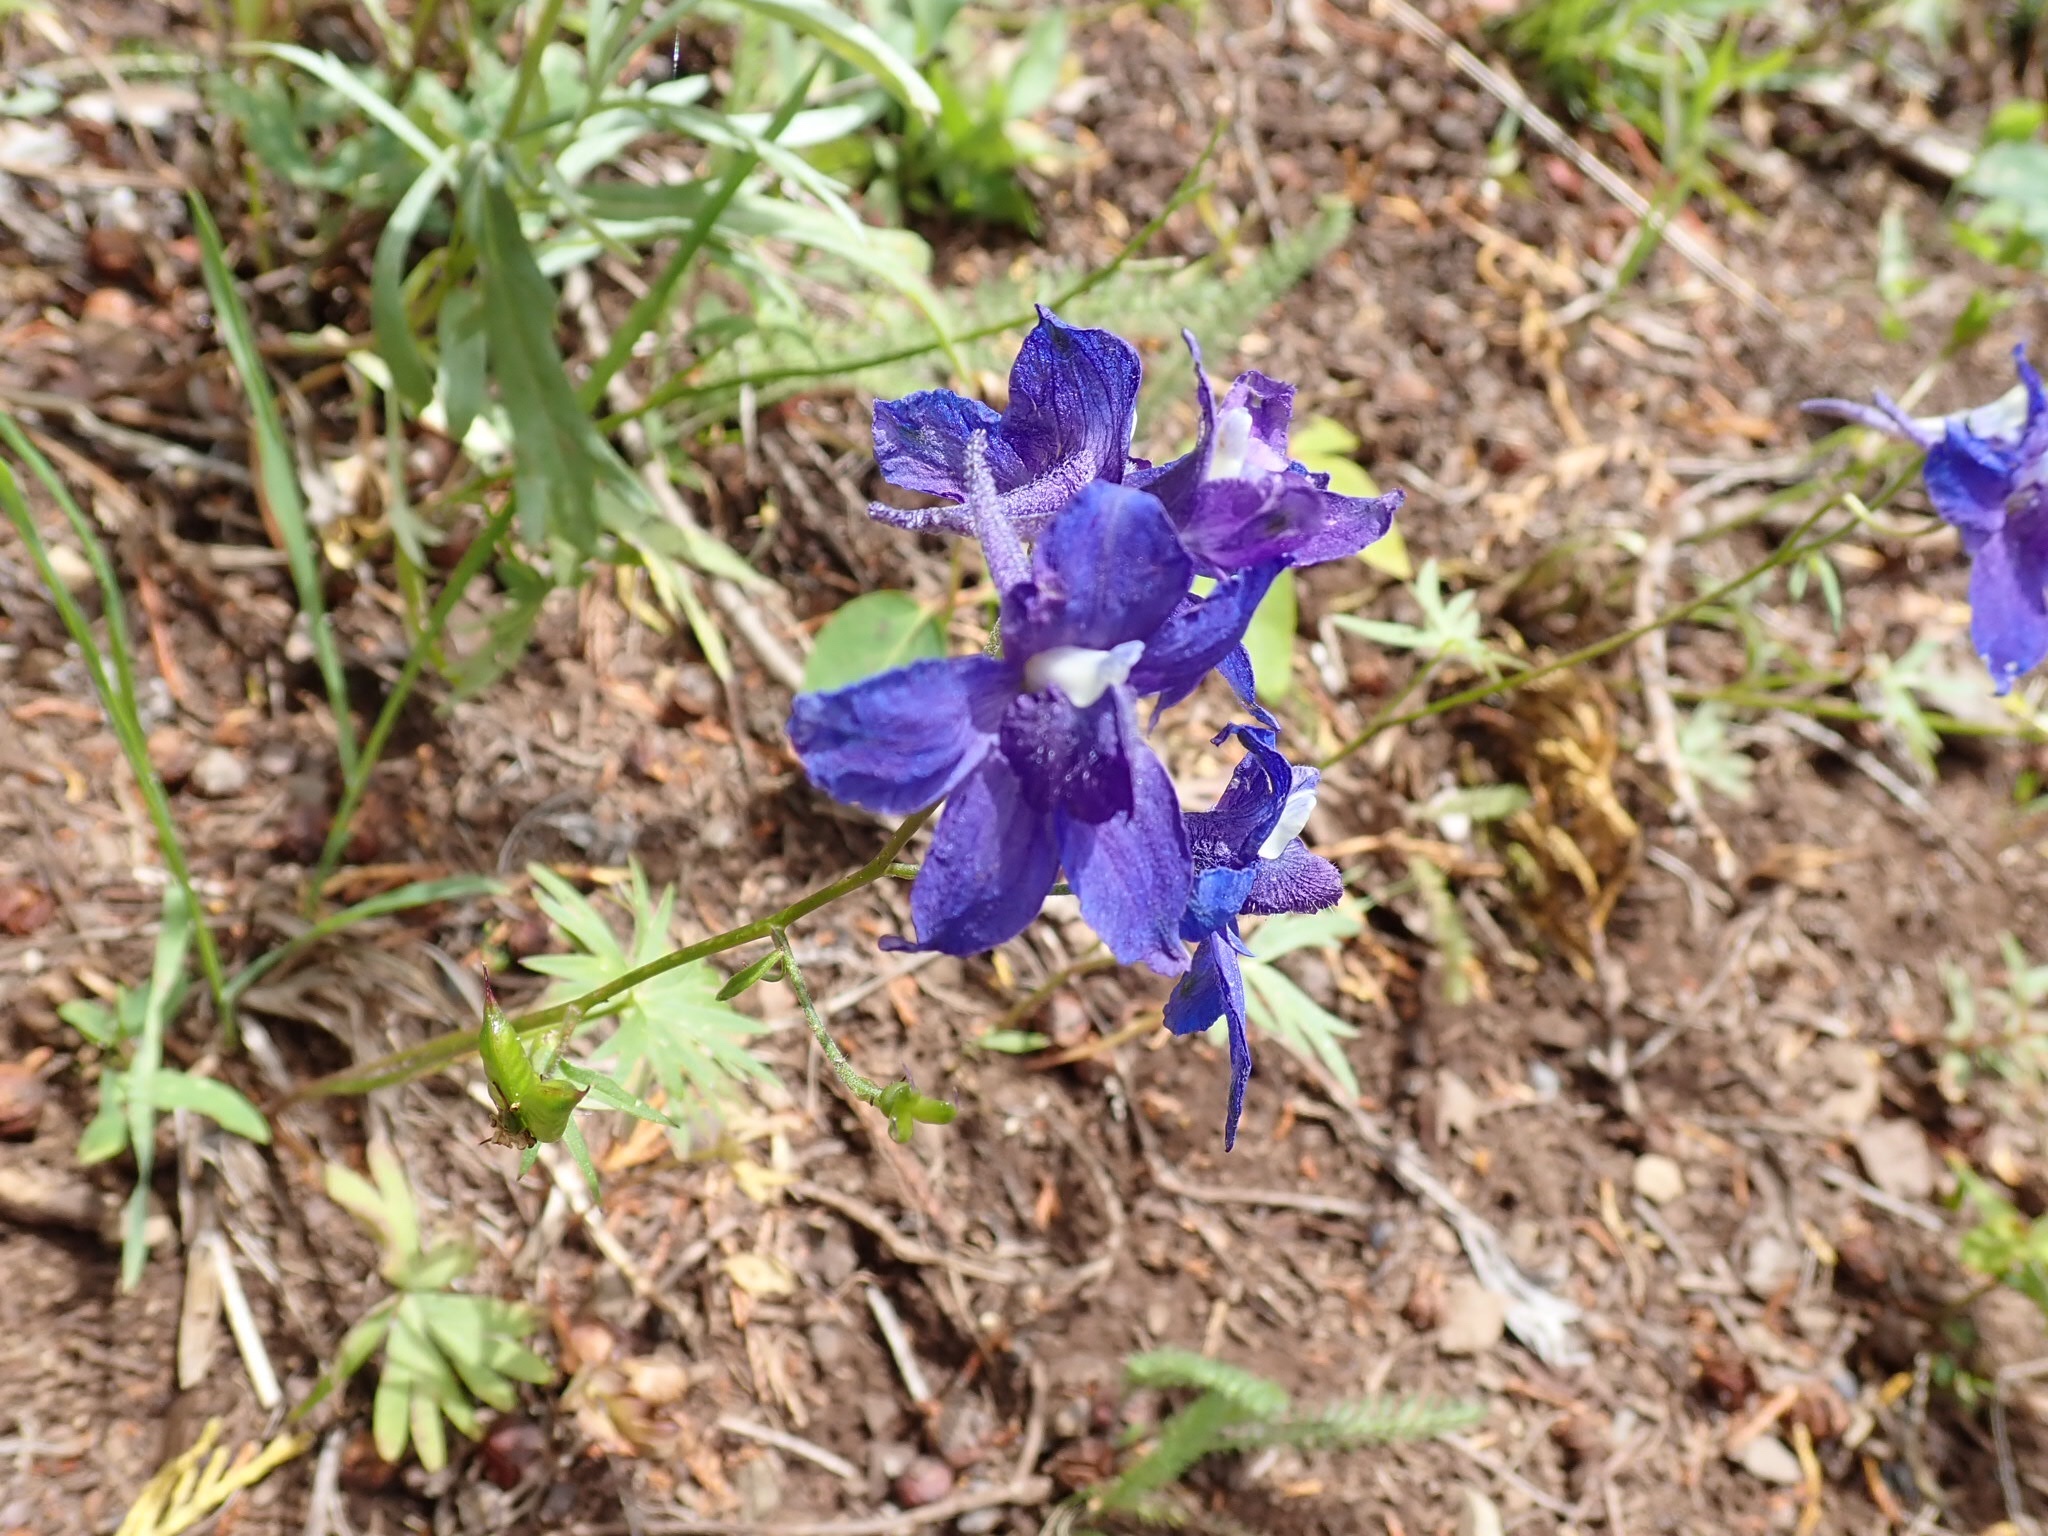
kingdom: Plantae
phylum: Tracheophyta
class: Magnoliopsida
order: Ranunculales
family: Ranunculaceae
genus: Delphinium
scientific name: Delphinium glareosum
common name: Olympic mountain larkspur
